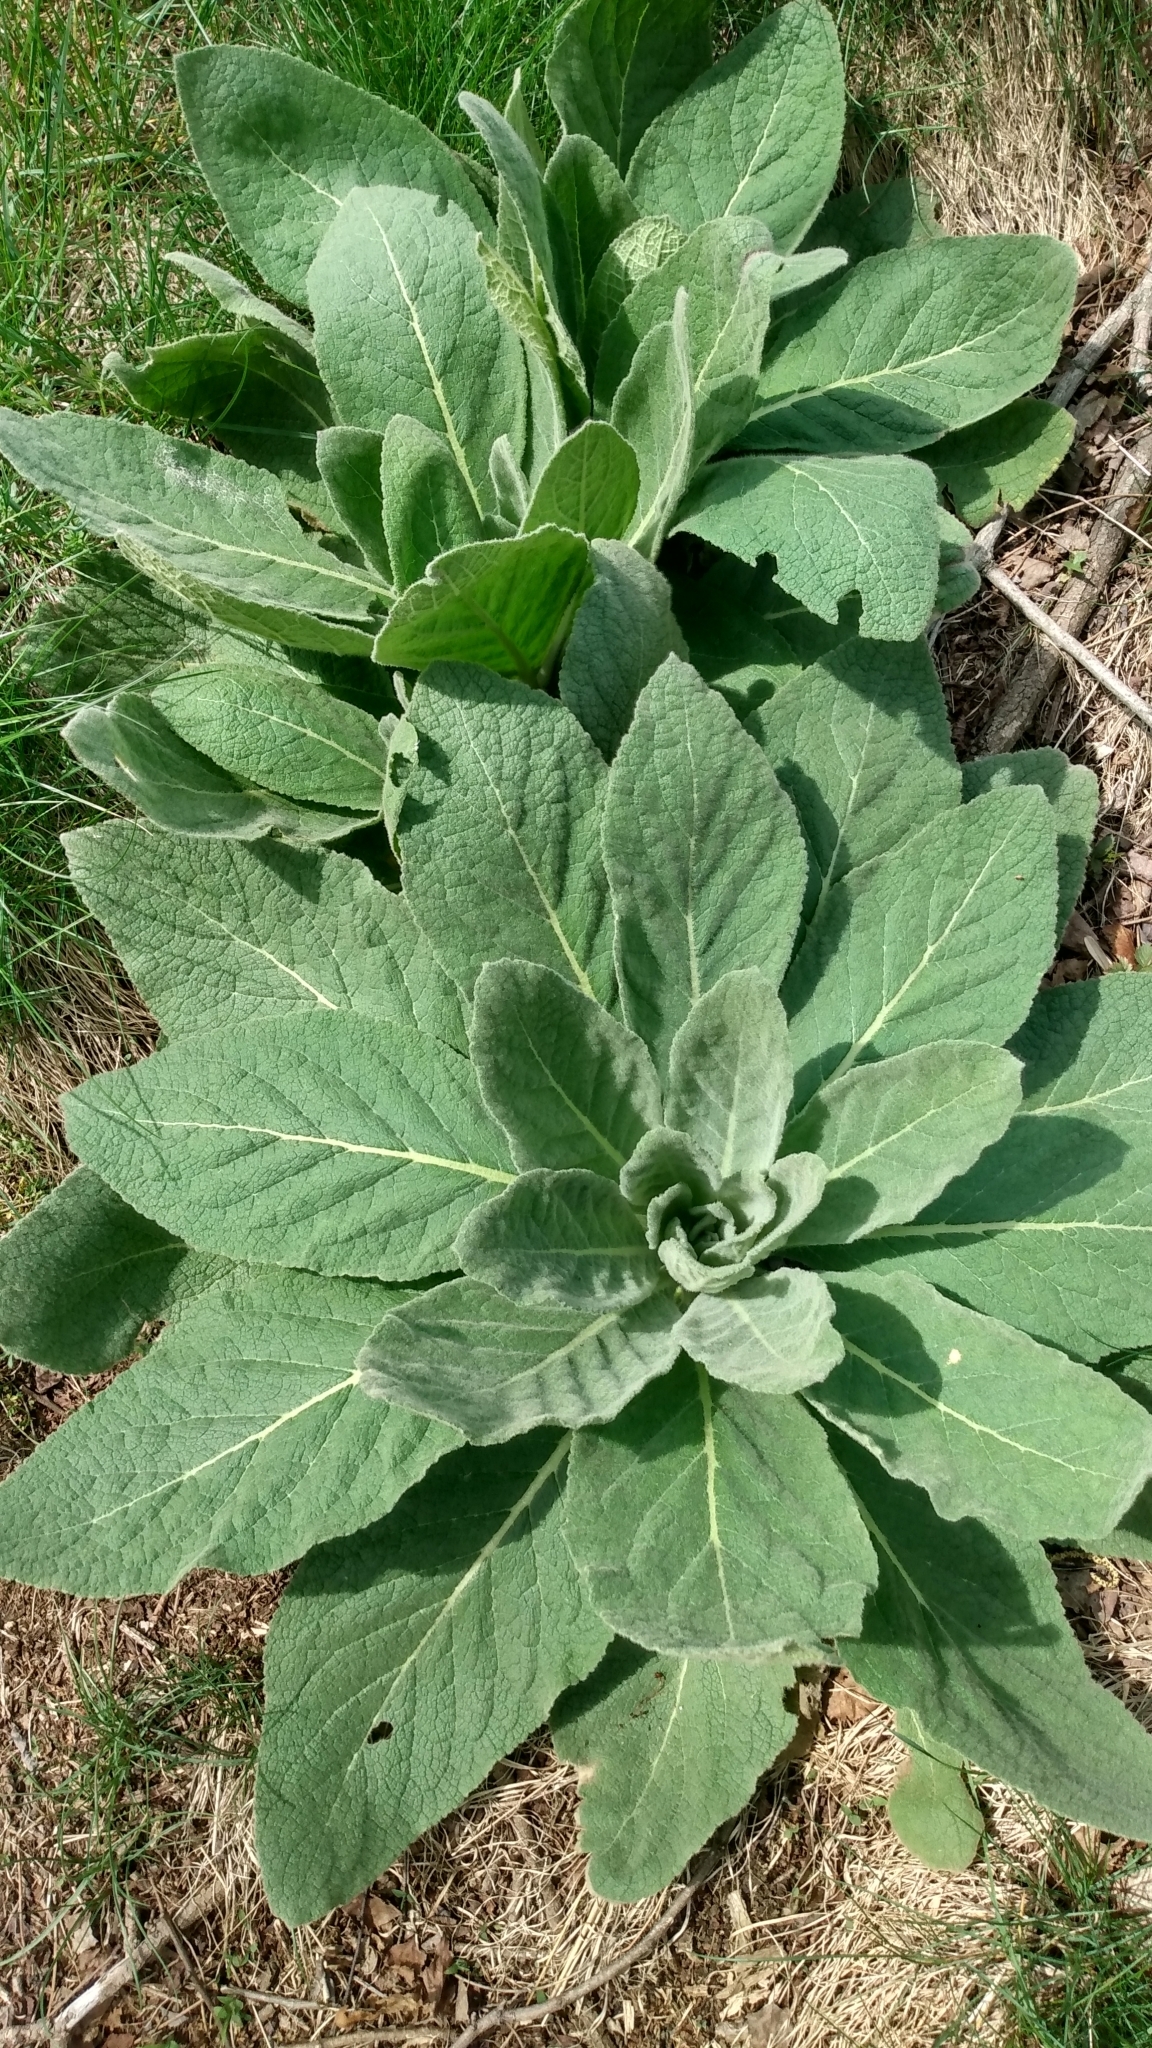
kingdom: Plantae
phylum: Tracheophyta
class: Magnoliopsida
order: Lamiales
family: Scrophulariaceae
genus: Verbascum
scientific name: Verbascum thapsus
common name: Common mullein
